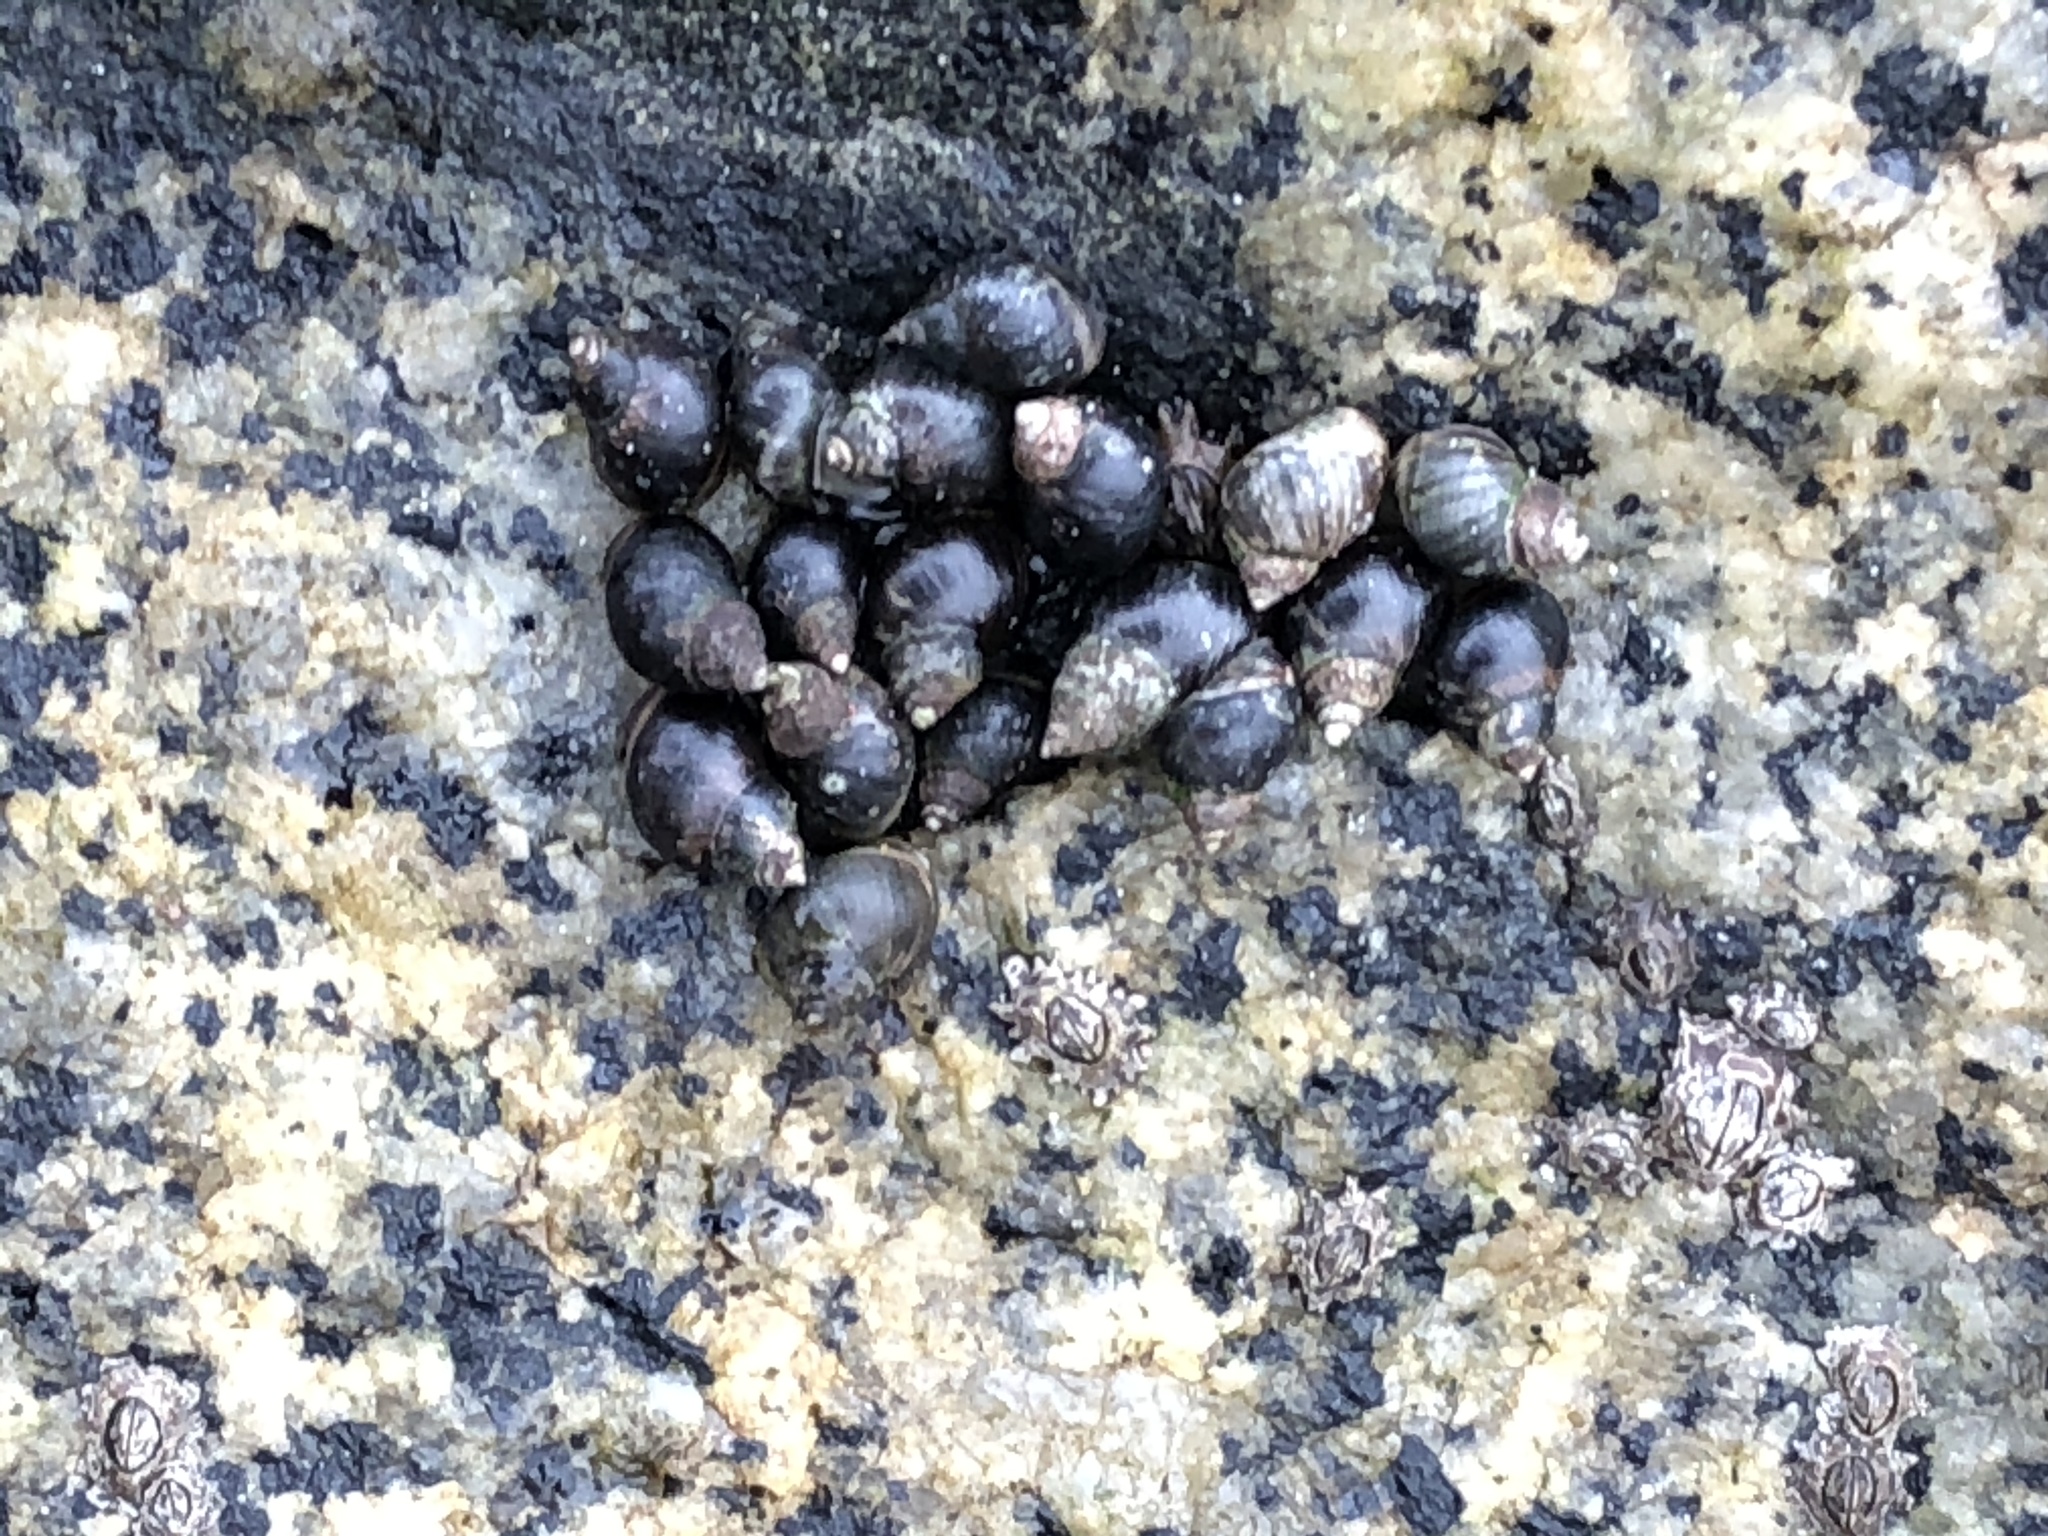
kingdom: Animalia
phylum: Mollusca
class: Gastropoda
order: Littorinimorpha
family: Littorinidae
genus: Echinolittorina
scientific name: Echinolittorina peruviana
